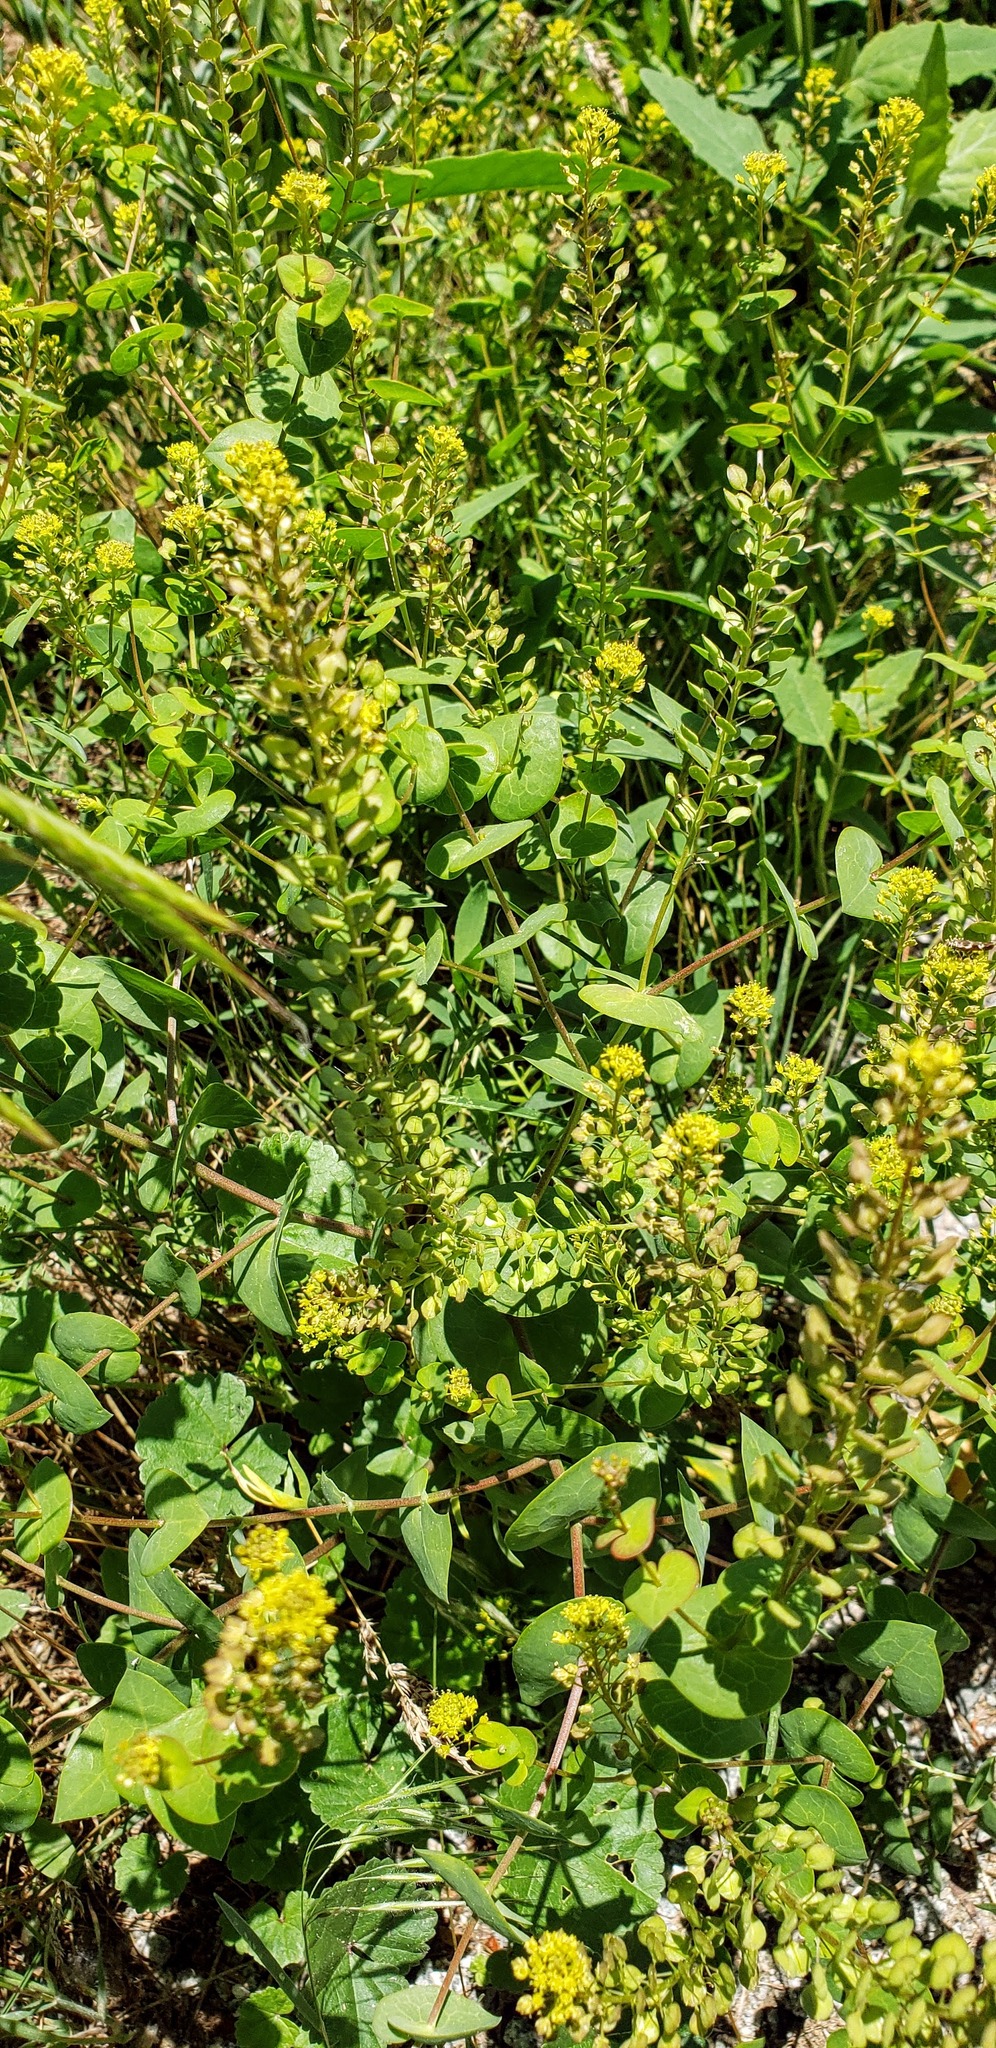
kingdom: Plantae
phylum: Tracheophyta
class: Magnoliopsida
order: Brassicales
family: Brassicaceae
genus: Lepidium
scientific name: Lepidium perfoliatum
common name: Perfoliate pepperwort
